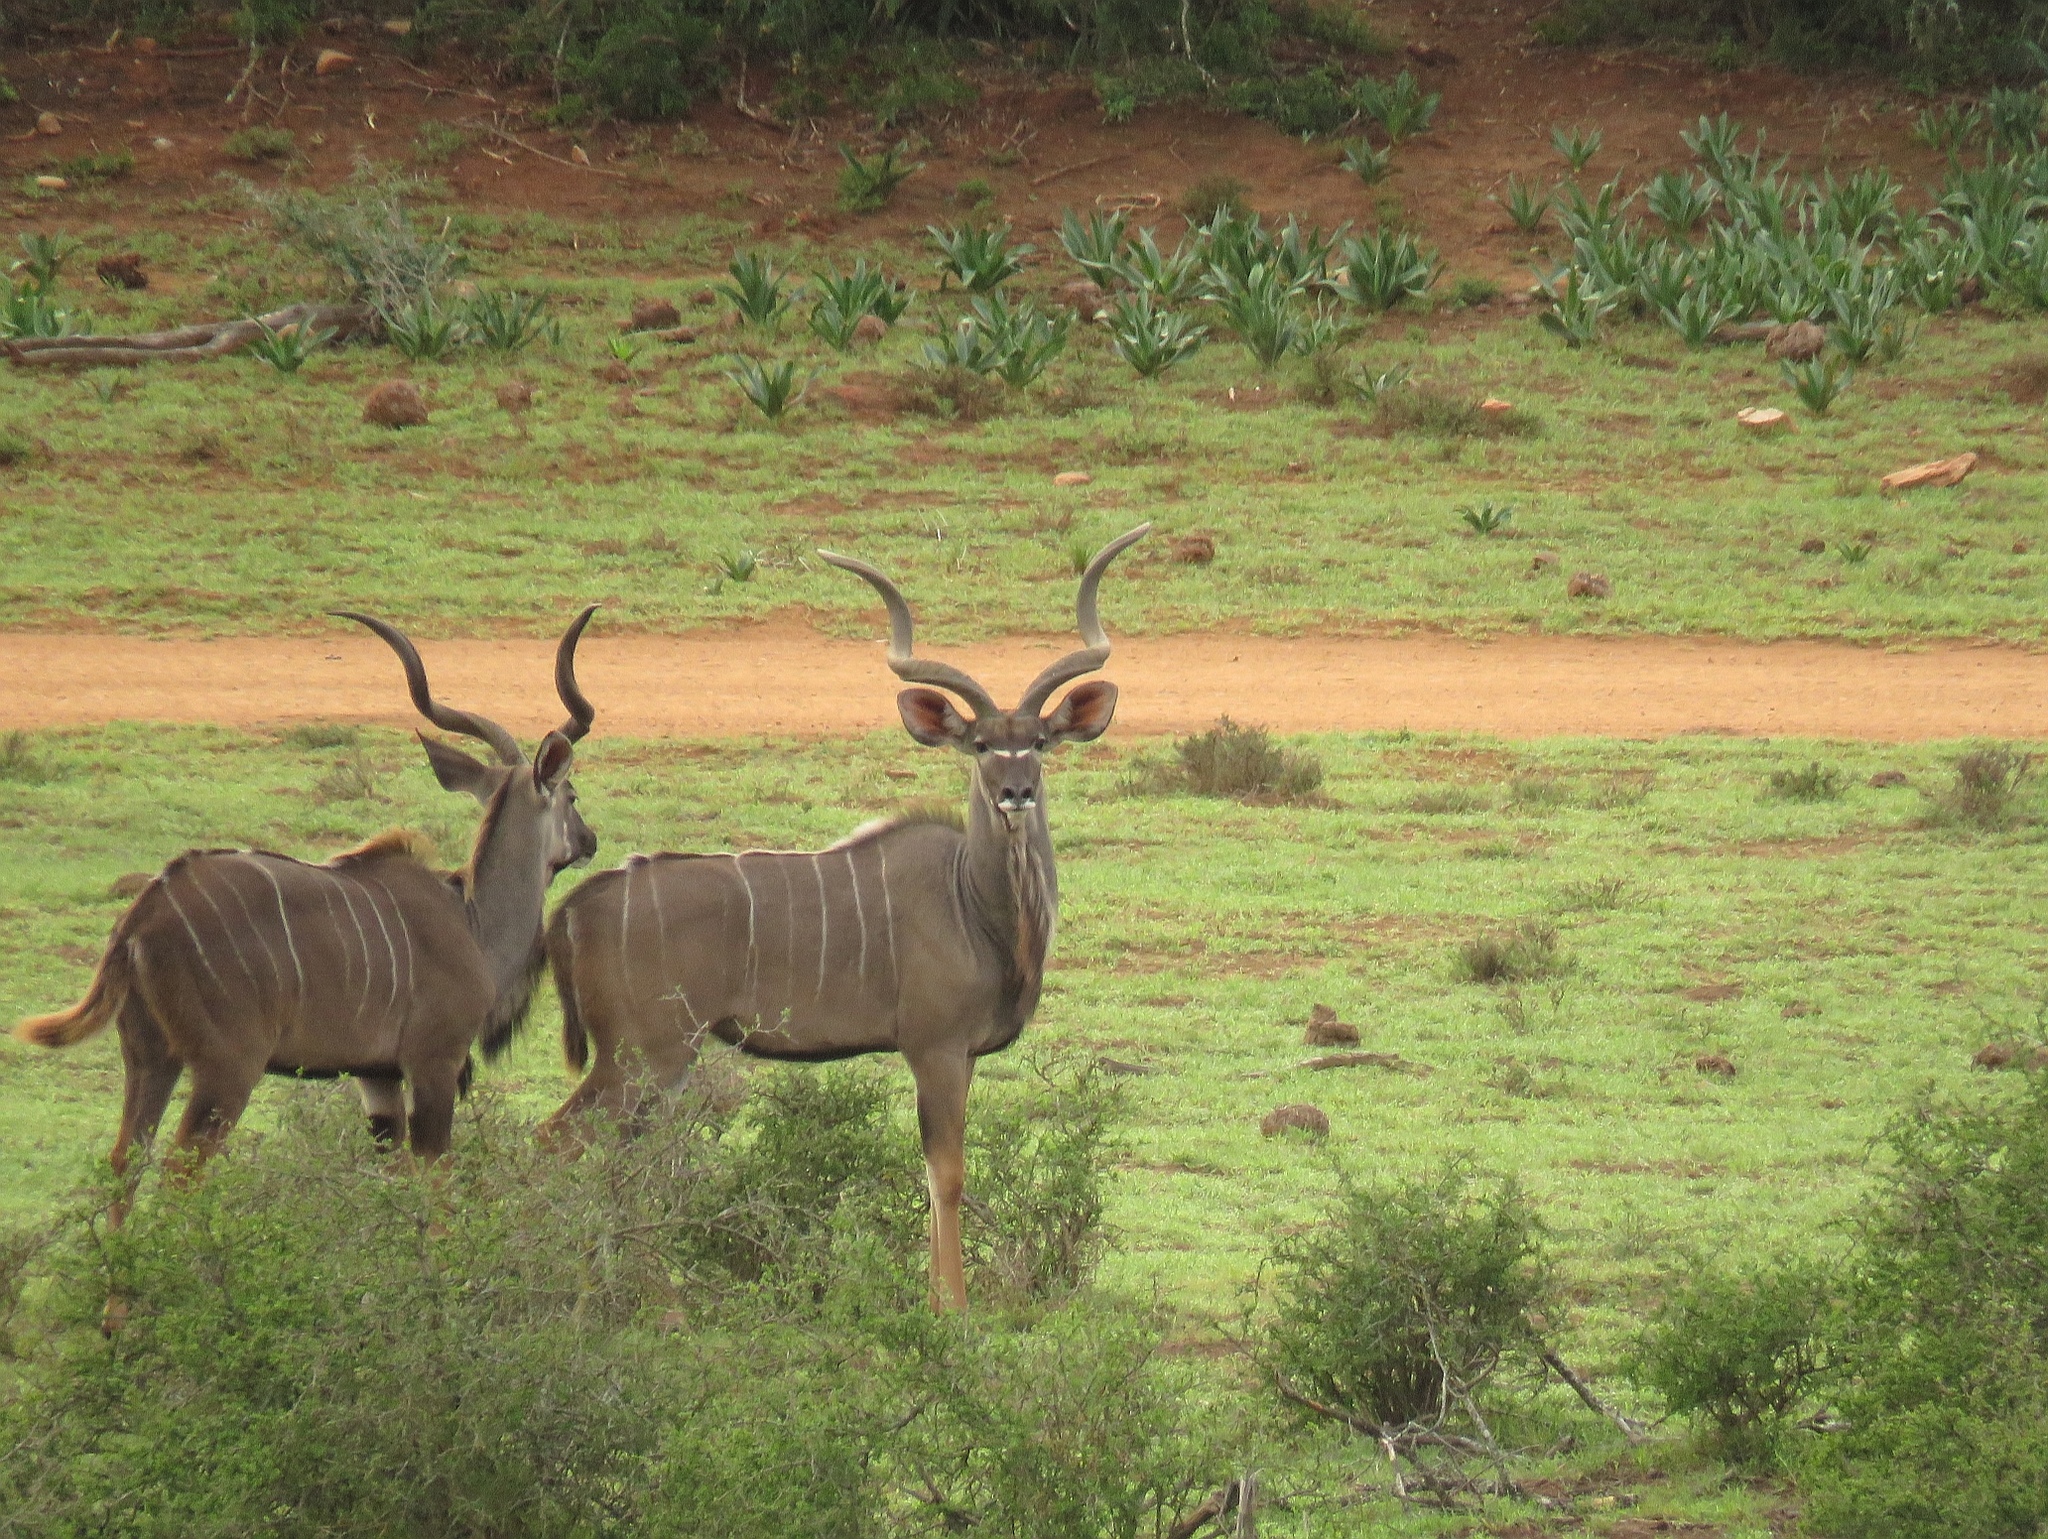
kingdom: Animalia
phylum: Chordata
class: Mammalia
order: Artiodactyla
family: Bovidae
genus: Tragelaphus
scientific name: Tragelaphus strepsiceros
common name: Greater kudu
